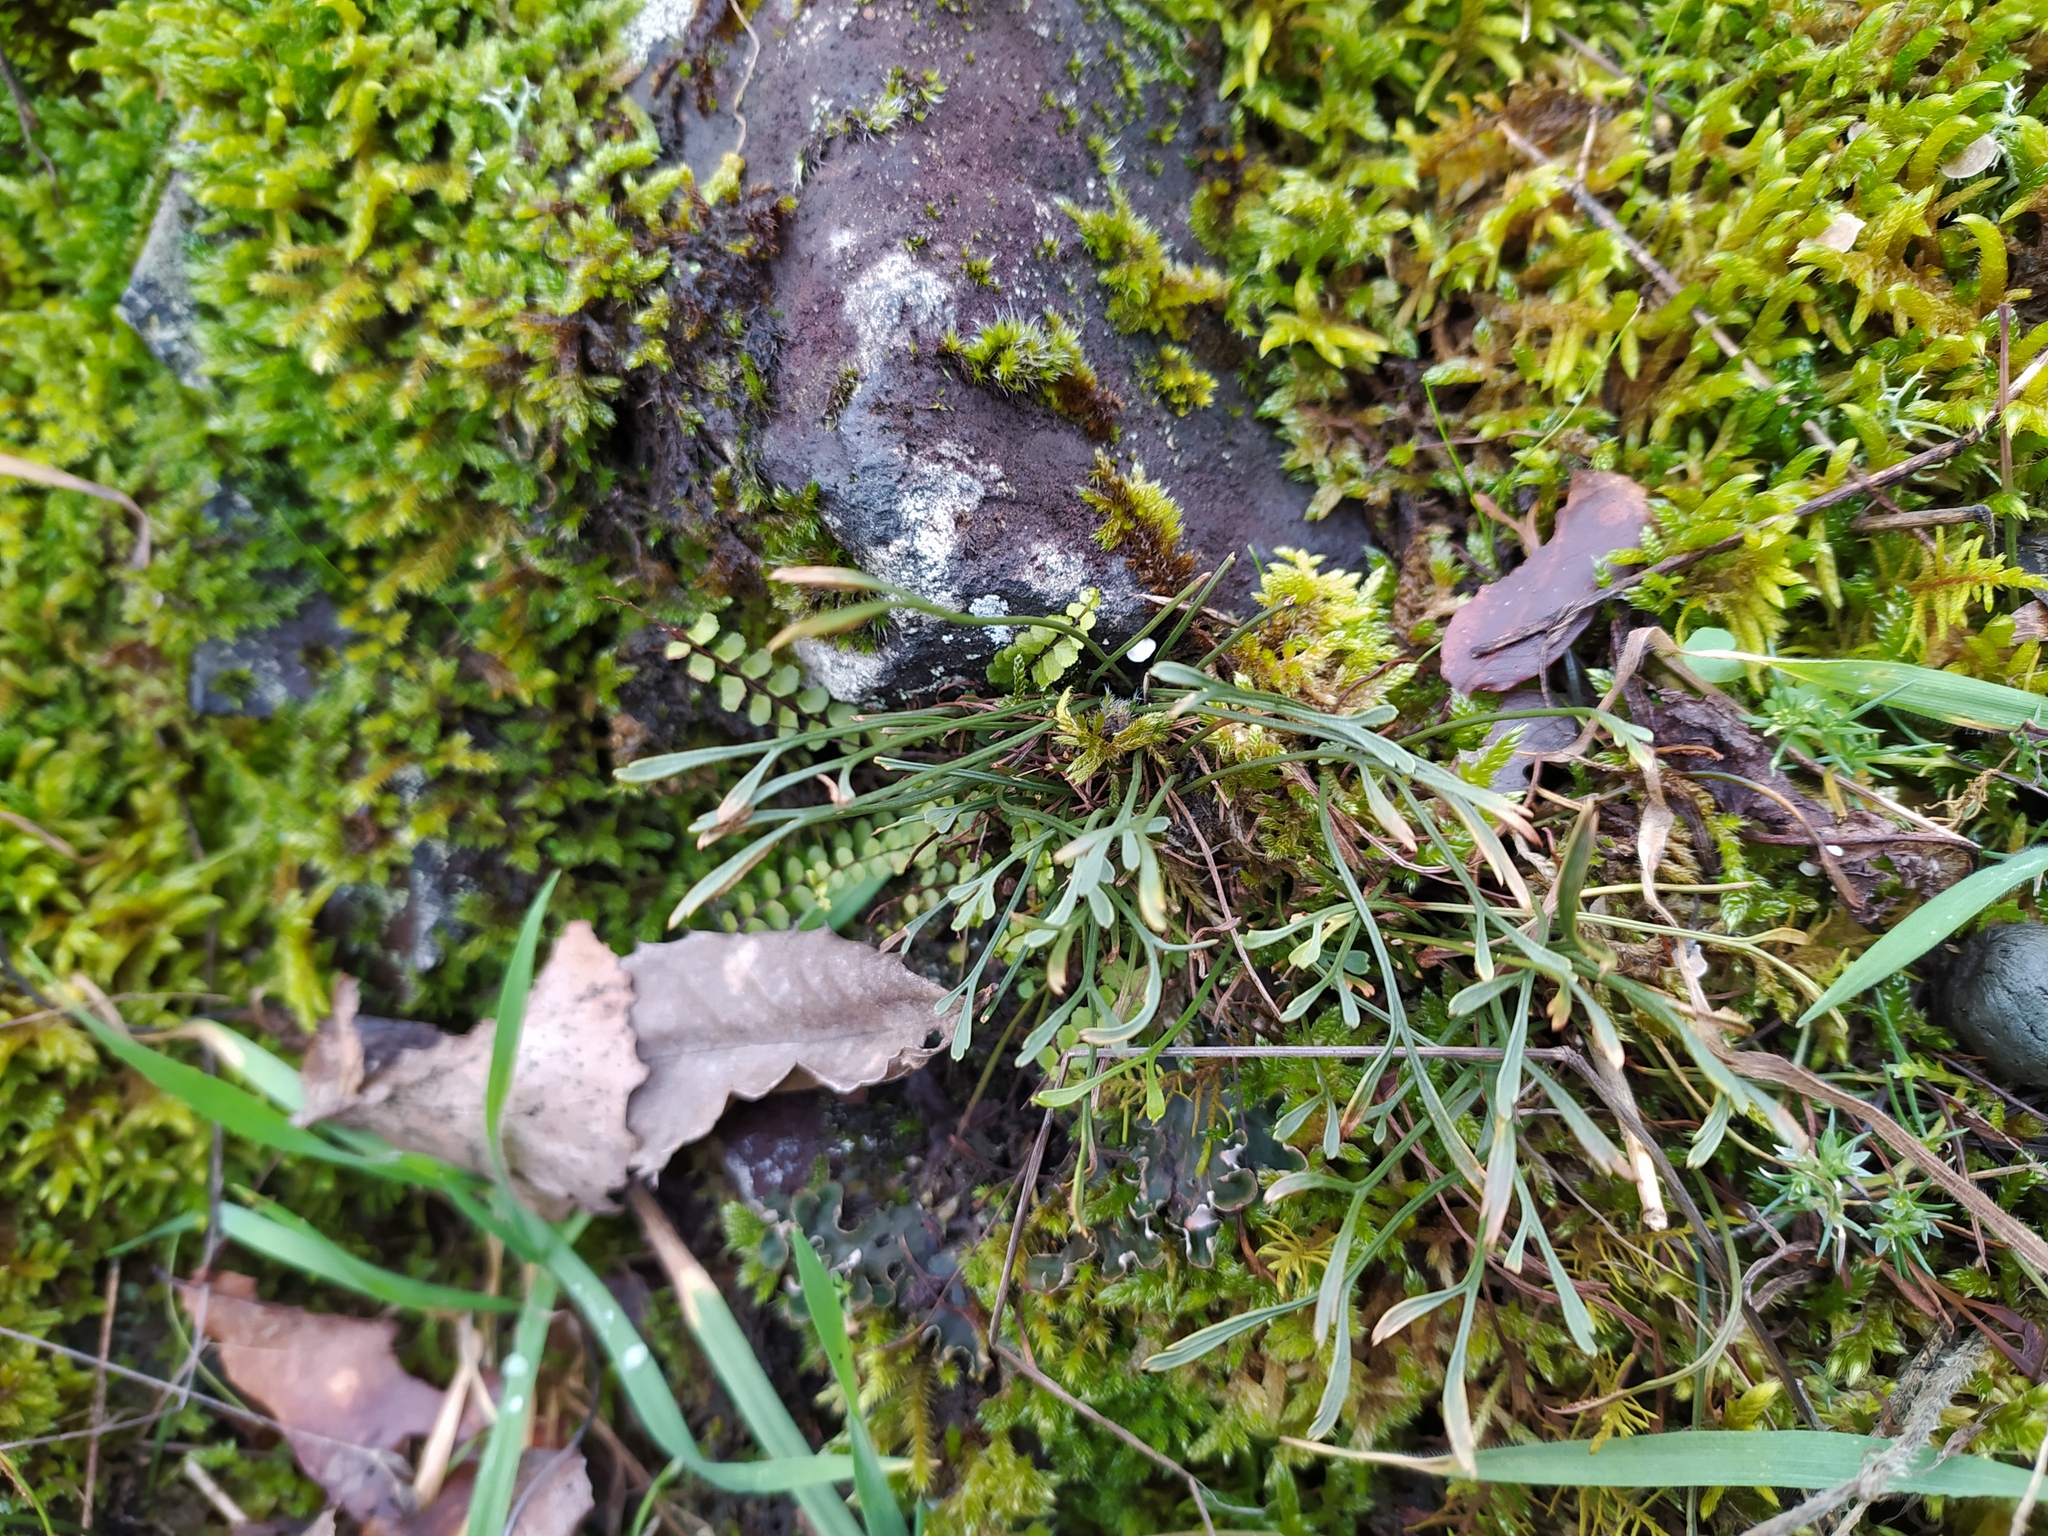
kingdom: Plantae
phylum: Tracheophyta
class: Polypodiopsida
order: Polypodiales
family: Aspleniaceae
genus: Asplenium
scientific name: Asplenium septentrionale
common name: Forked spleenwort
